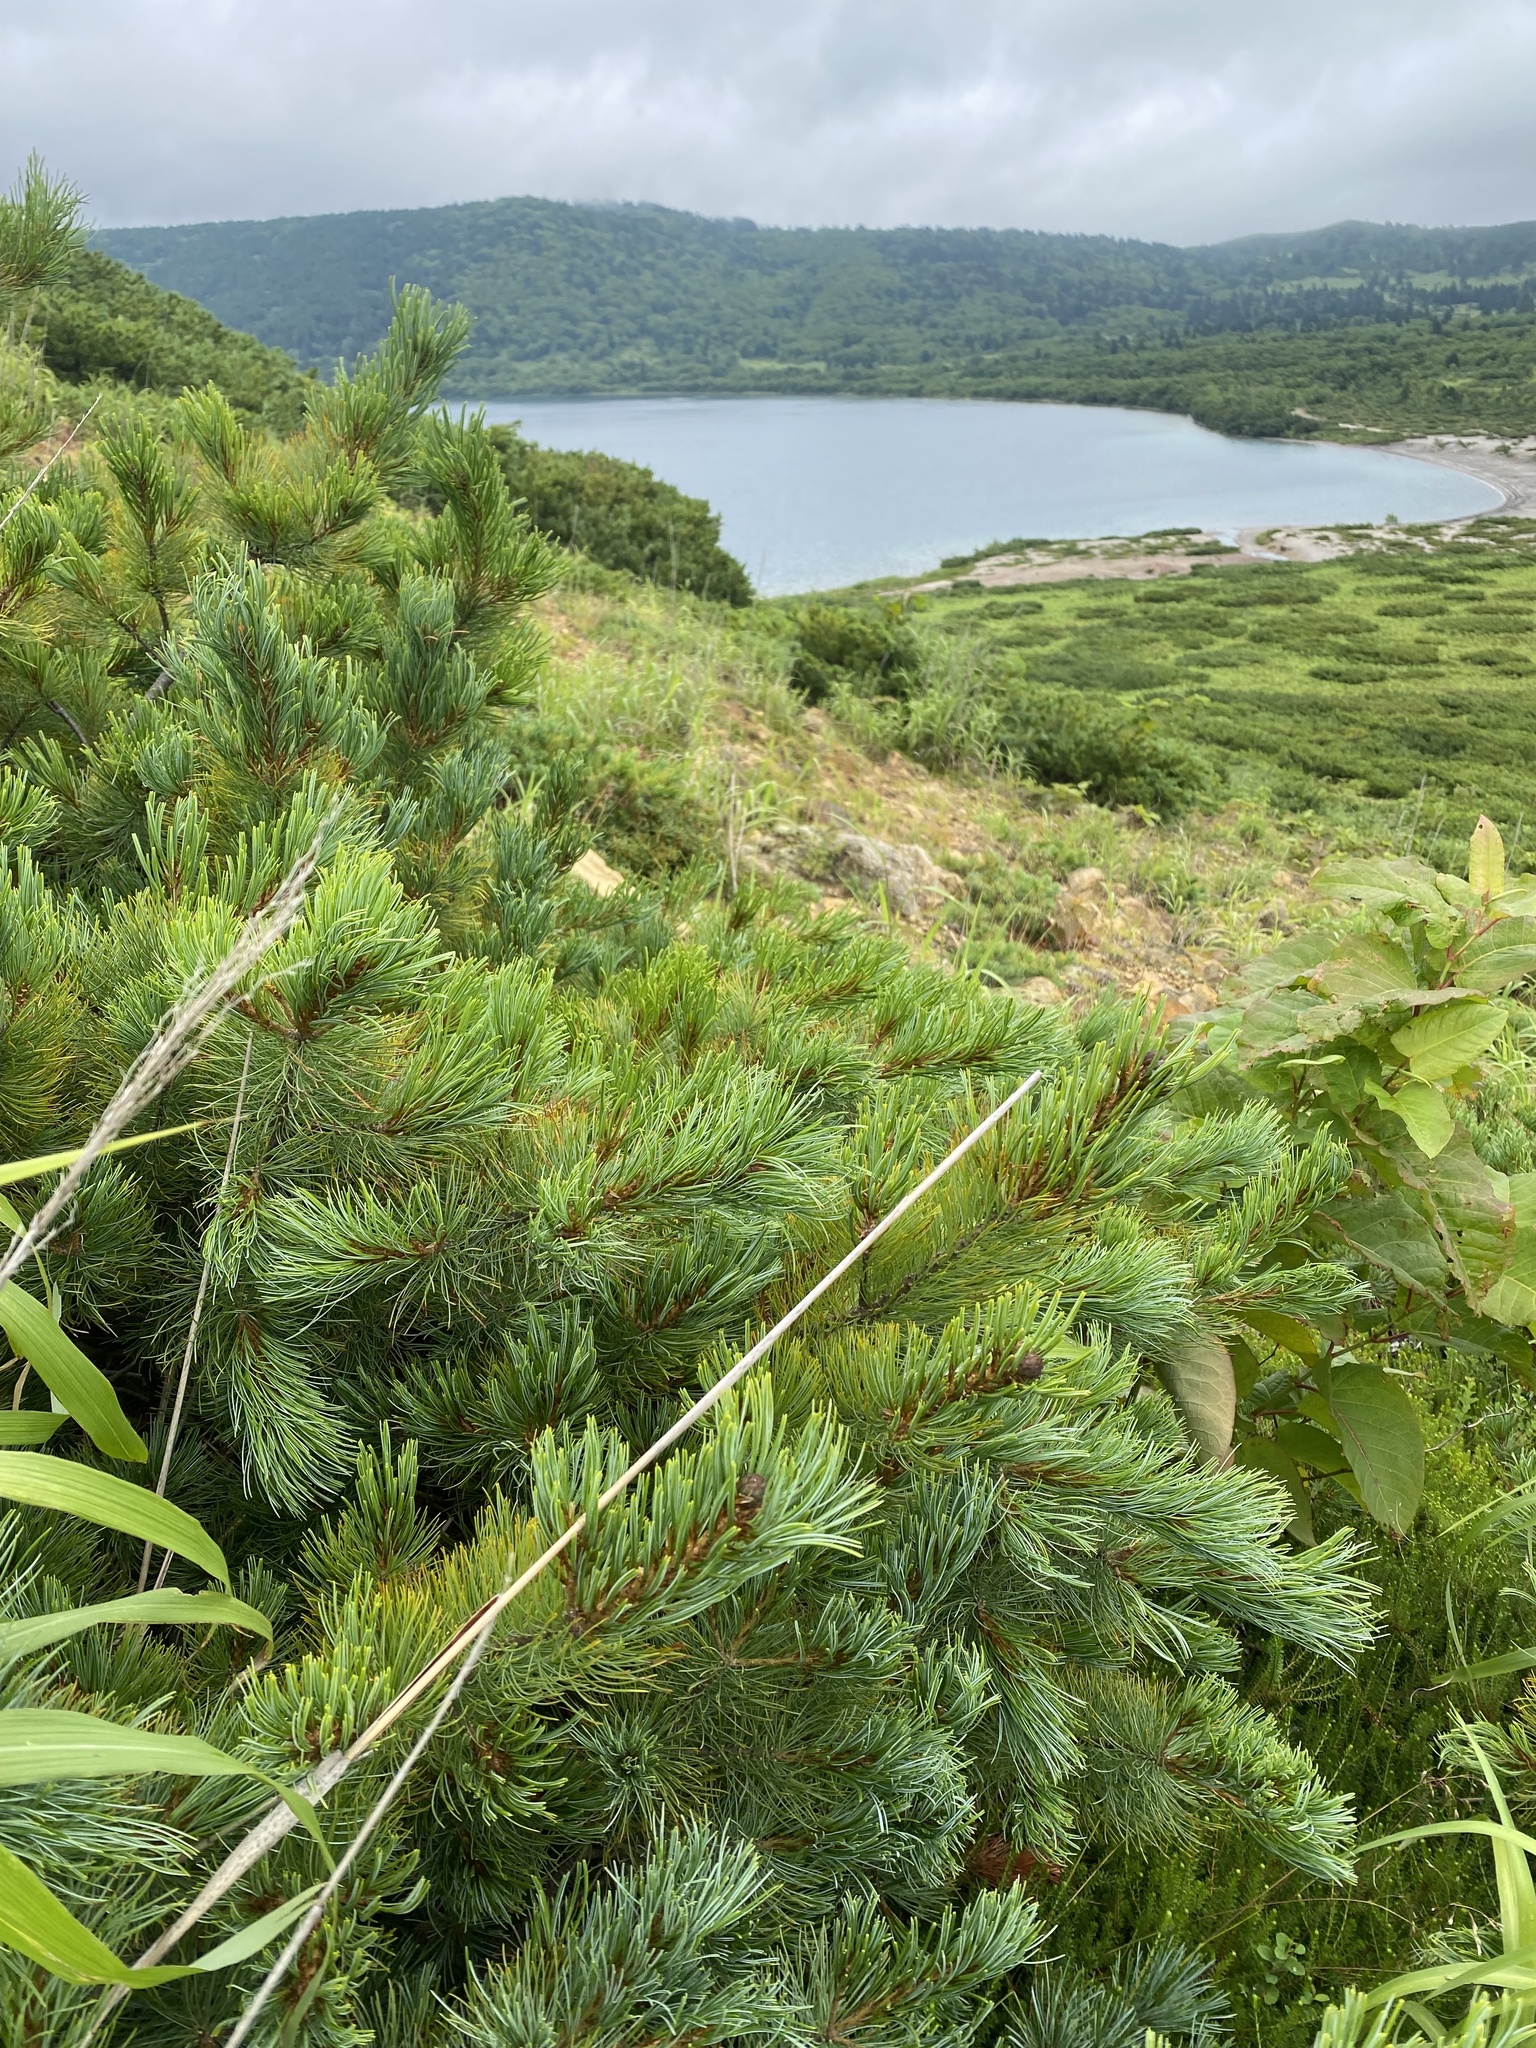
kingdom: Plantae
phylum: Tracheophyta
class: Pinopsida
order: Pinales
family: Pinaceae
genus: Pinus
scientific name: Pinus pumila
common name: Dwarf siberian pine
